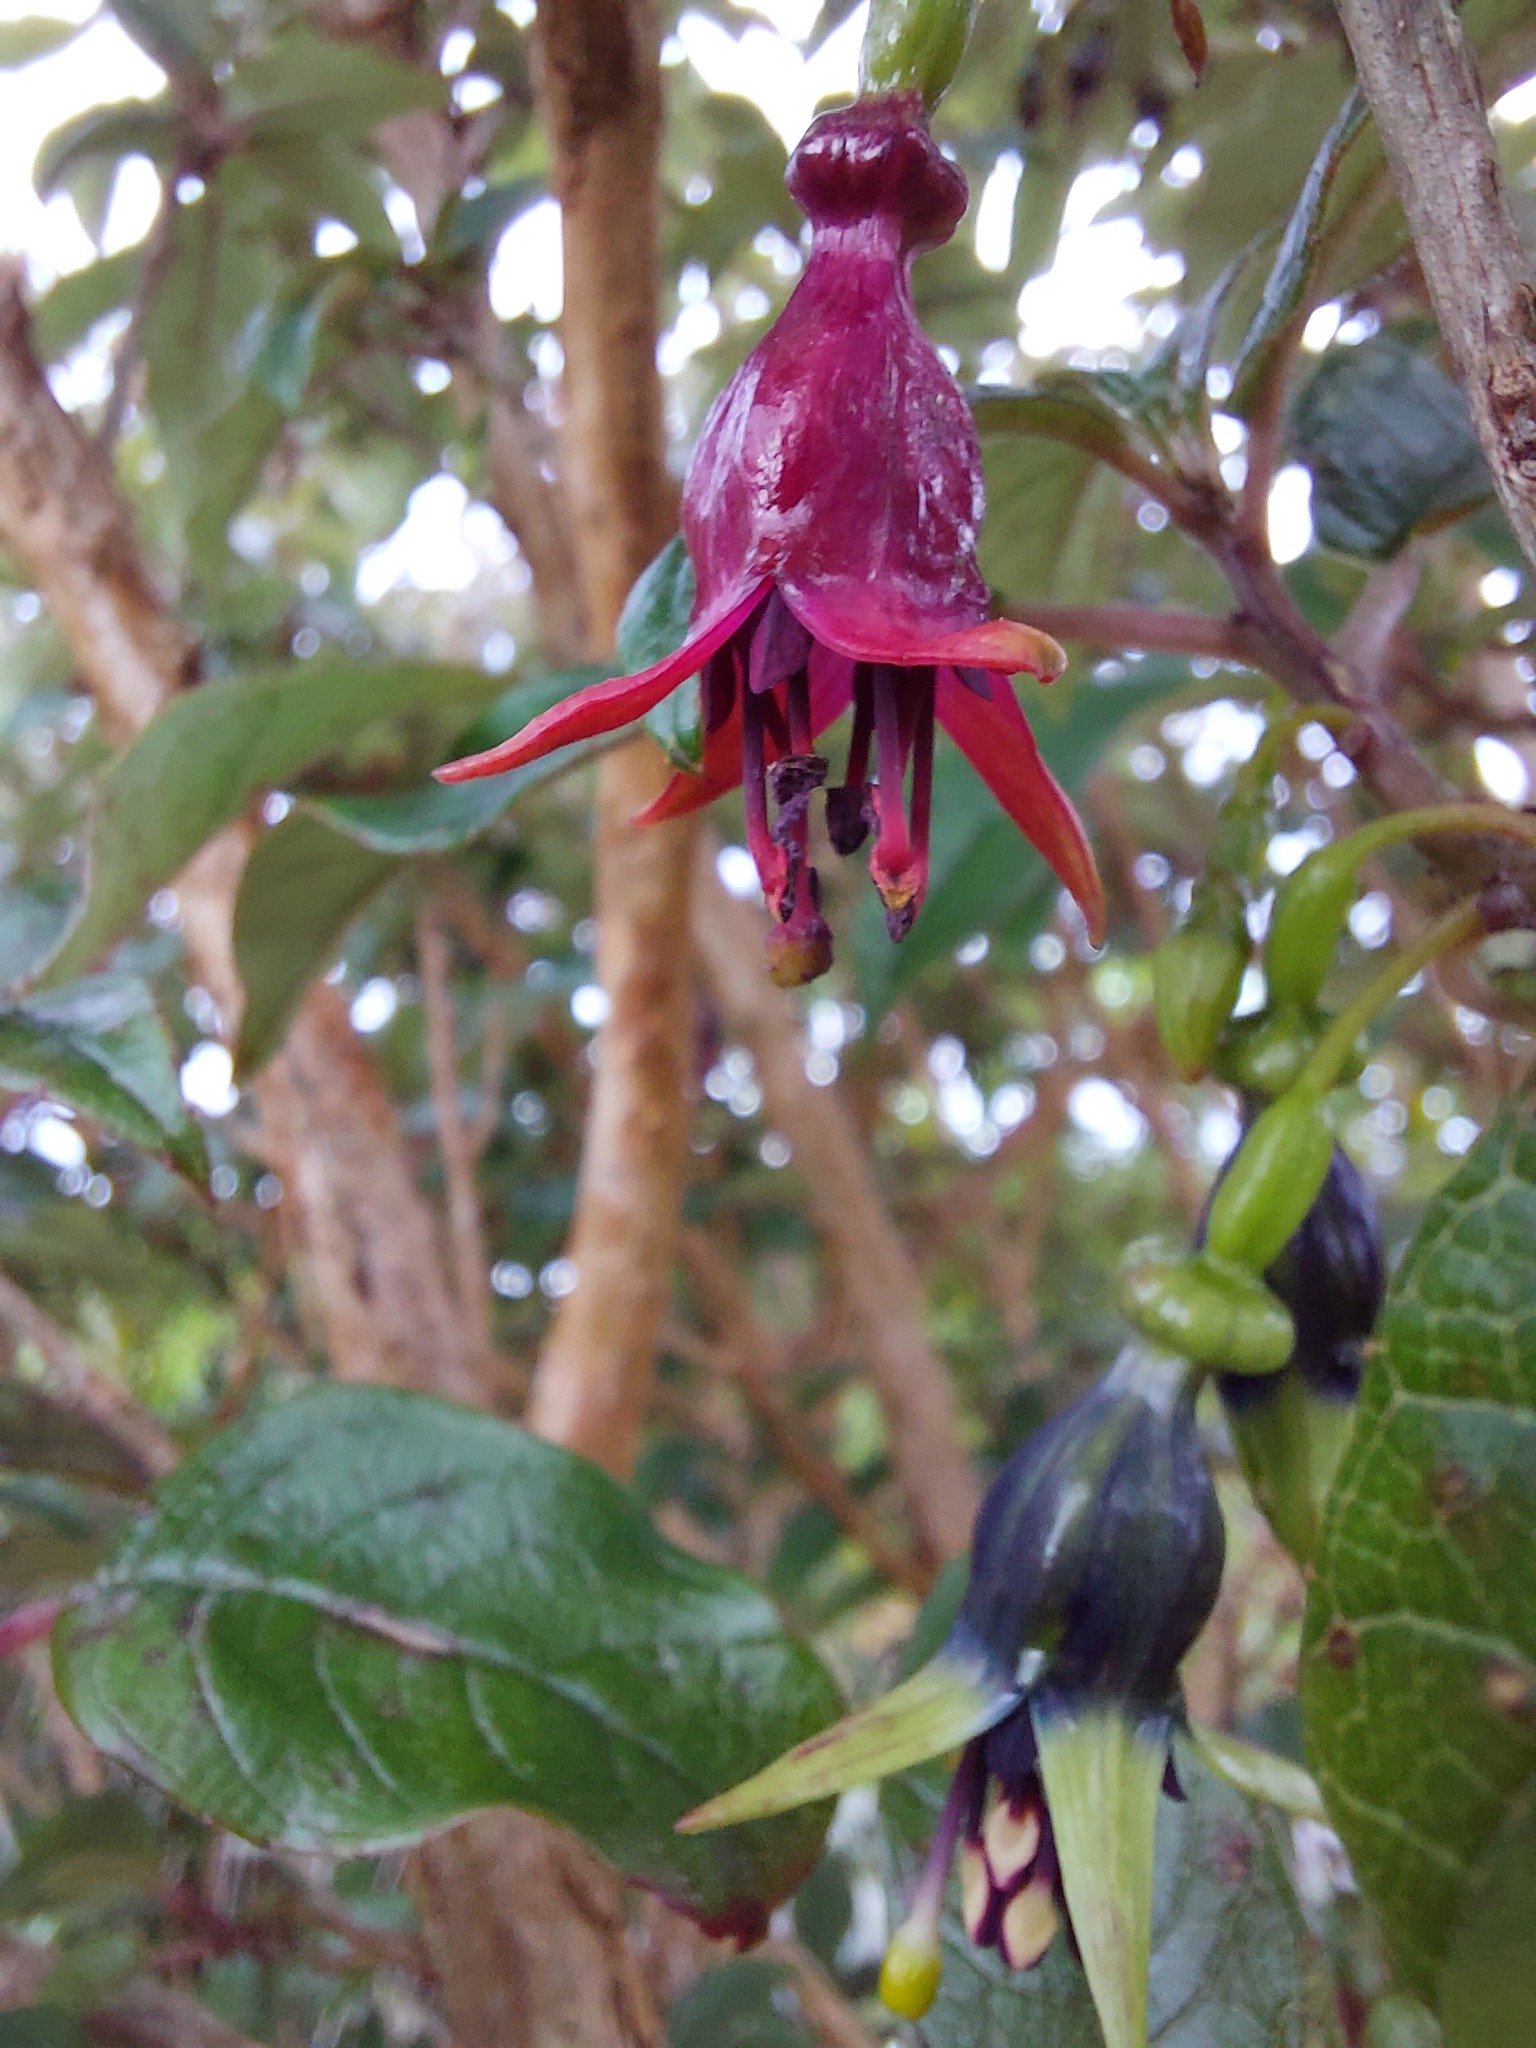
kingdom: Plantae
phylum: Tracheophyta
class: Magnoliopsida
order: Myrtales
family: Onagraceae
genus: Fuchsia
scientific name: Fuchsia excorticata
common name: Tree fuchsia
